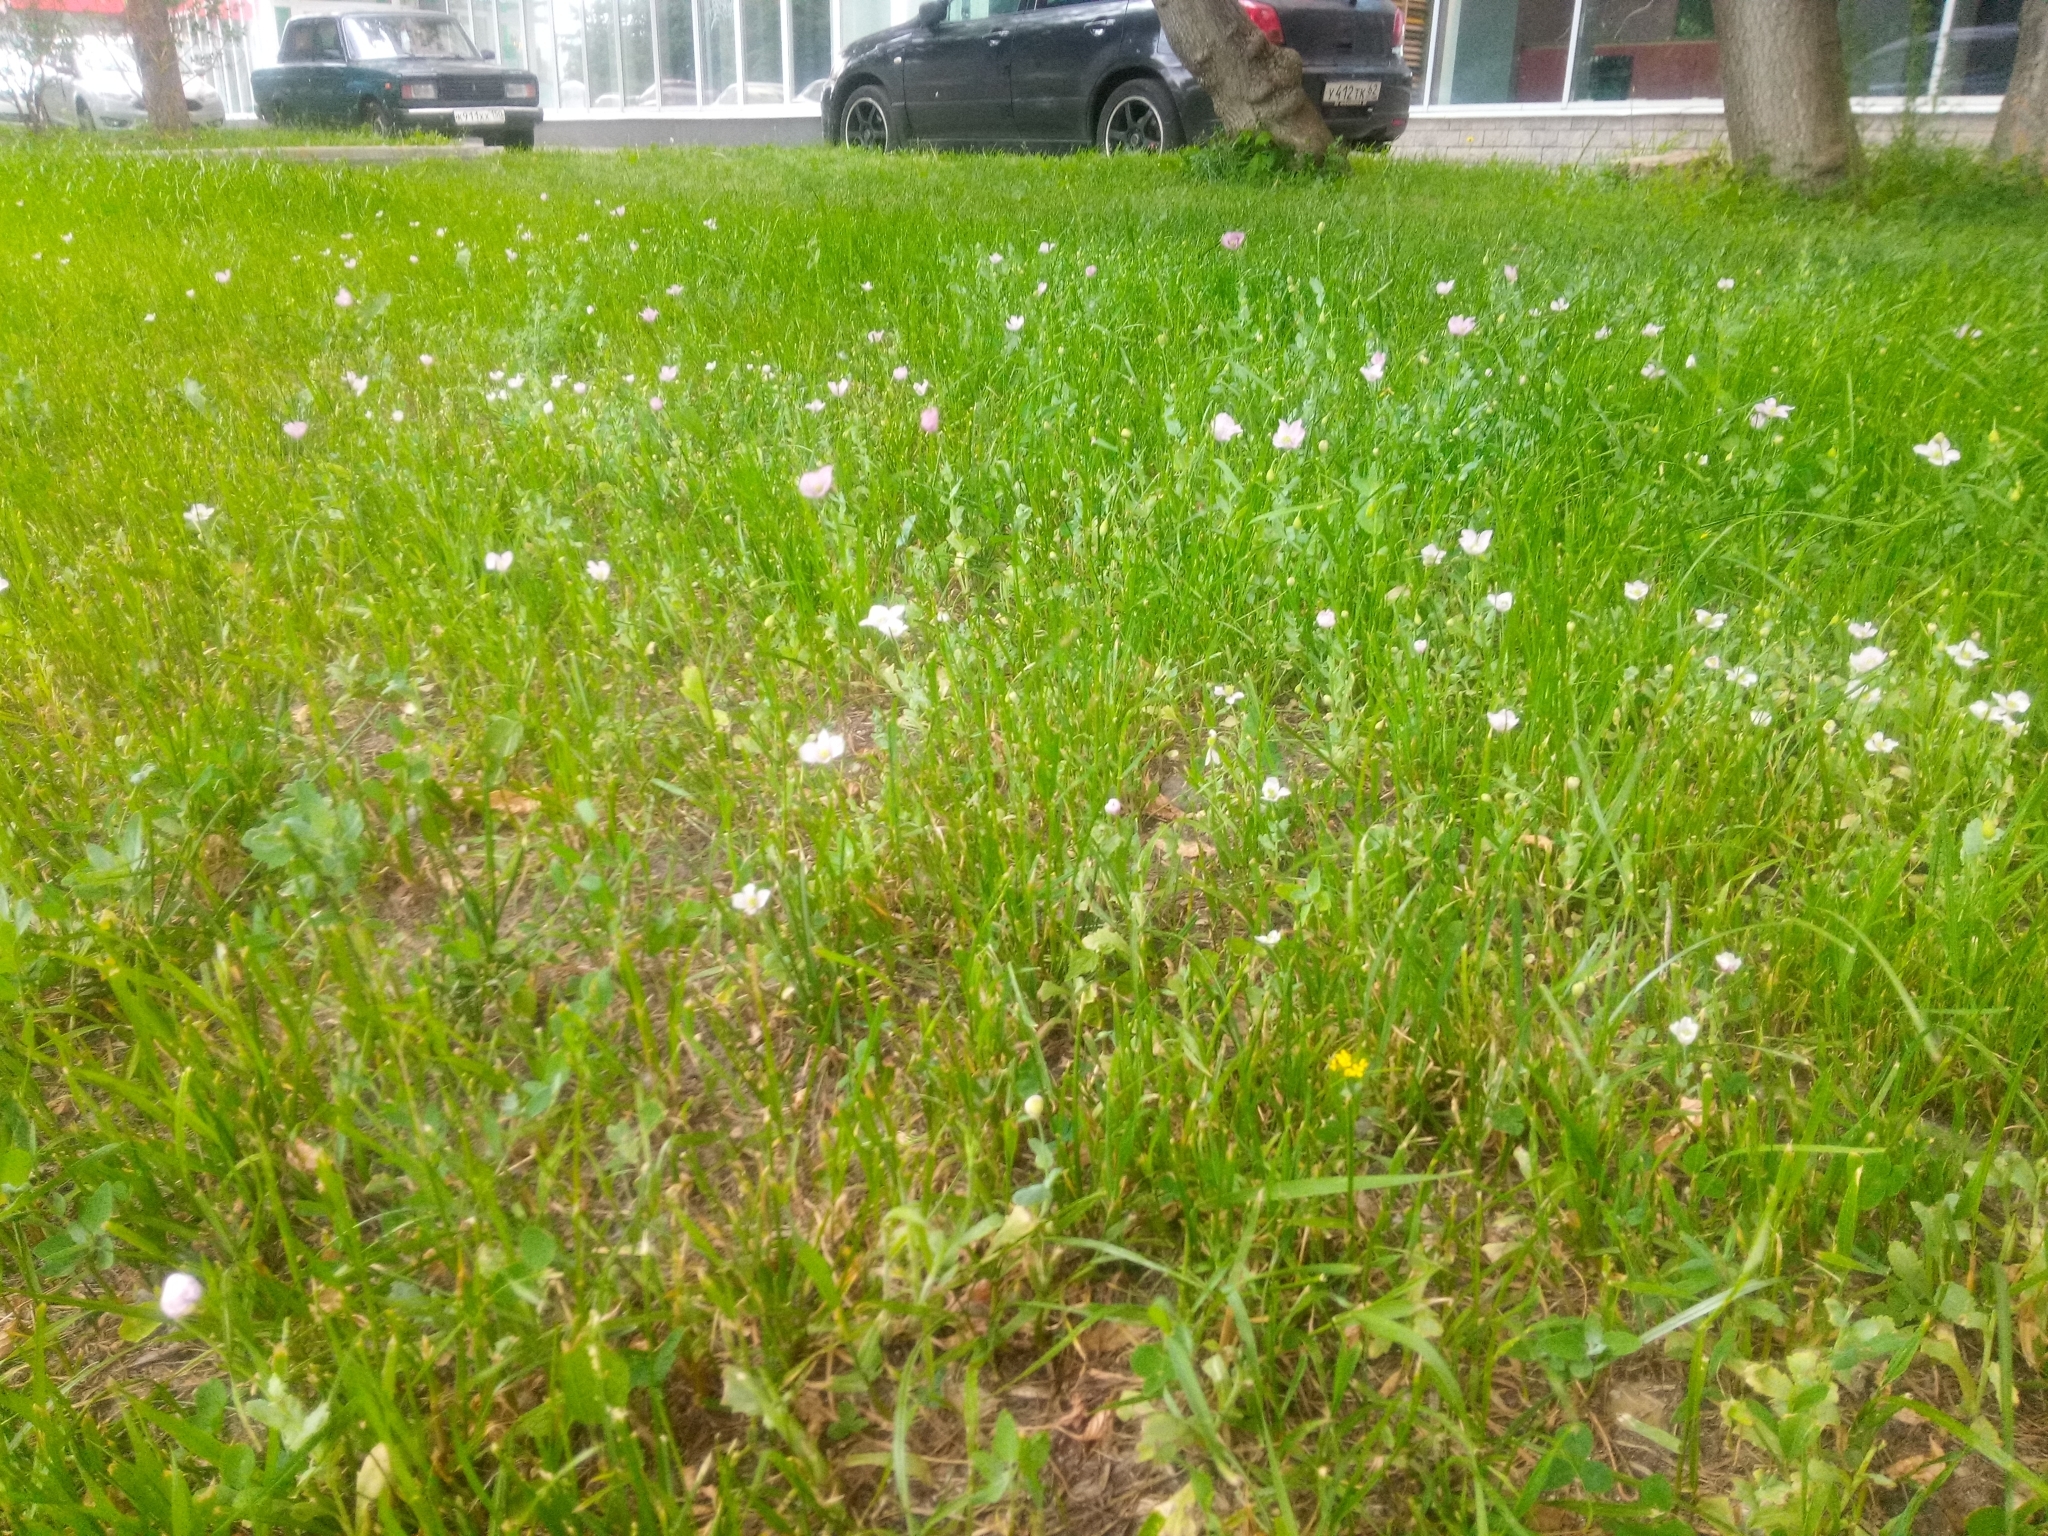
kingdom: Plantae
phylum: Tracheophyta
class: Magnoliopsida
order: Ranunculales
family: Papaveraceae
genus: Papaver
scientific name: Papaver somniferum
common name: Opium poppy
